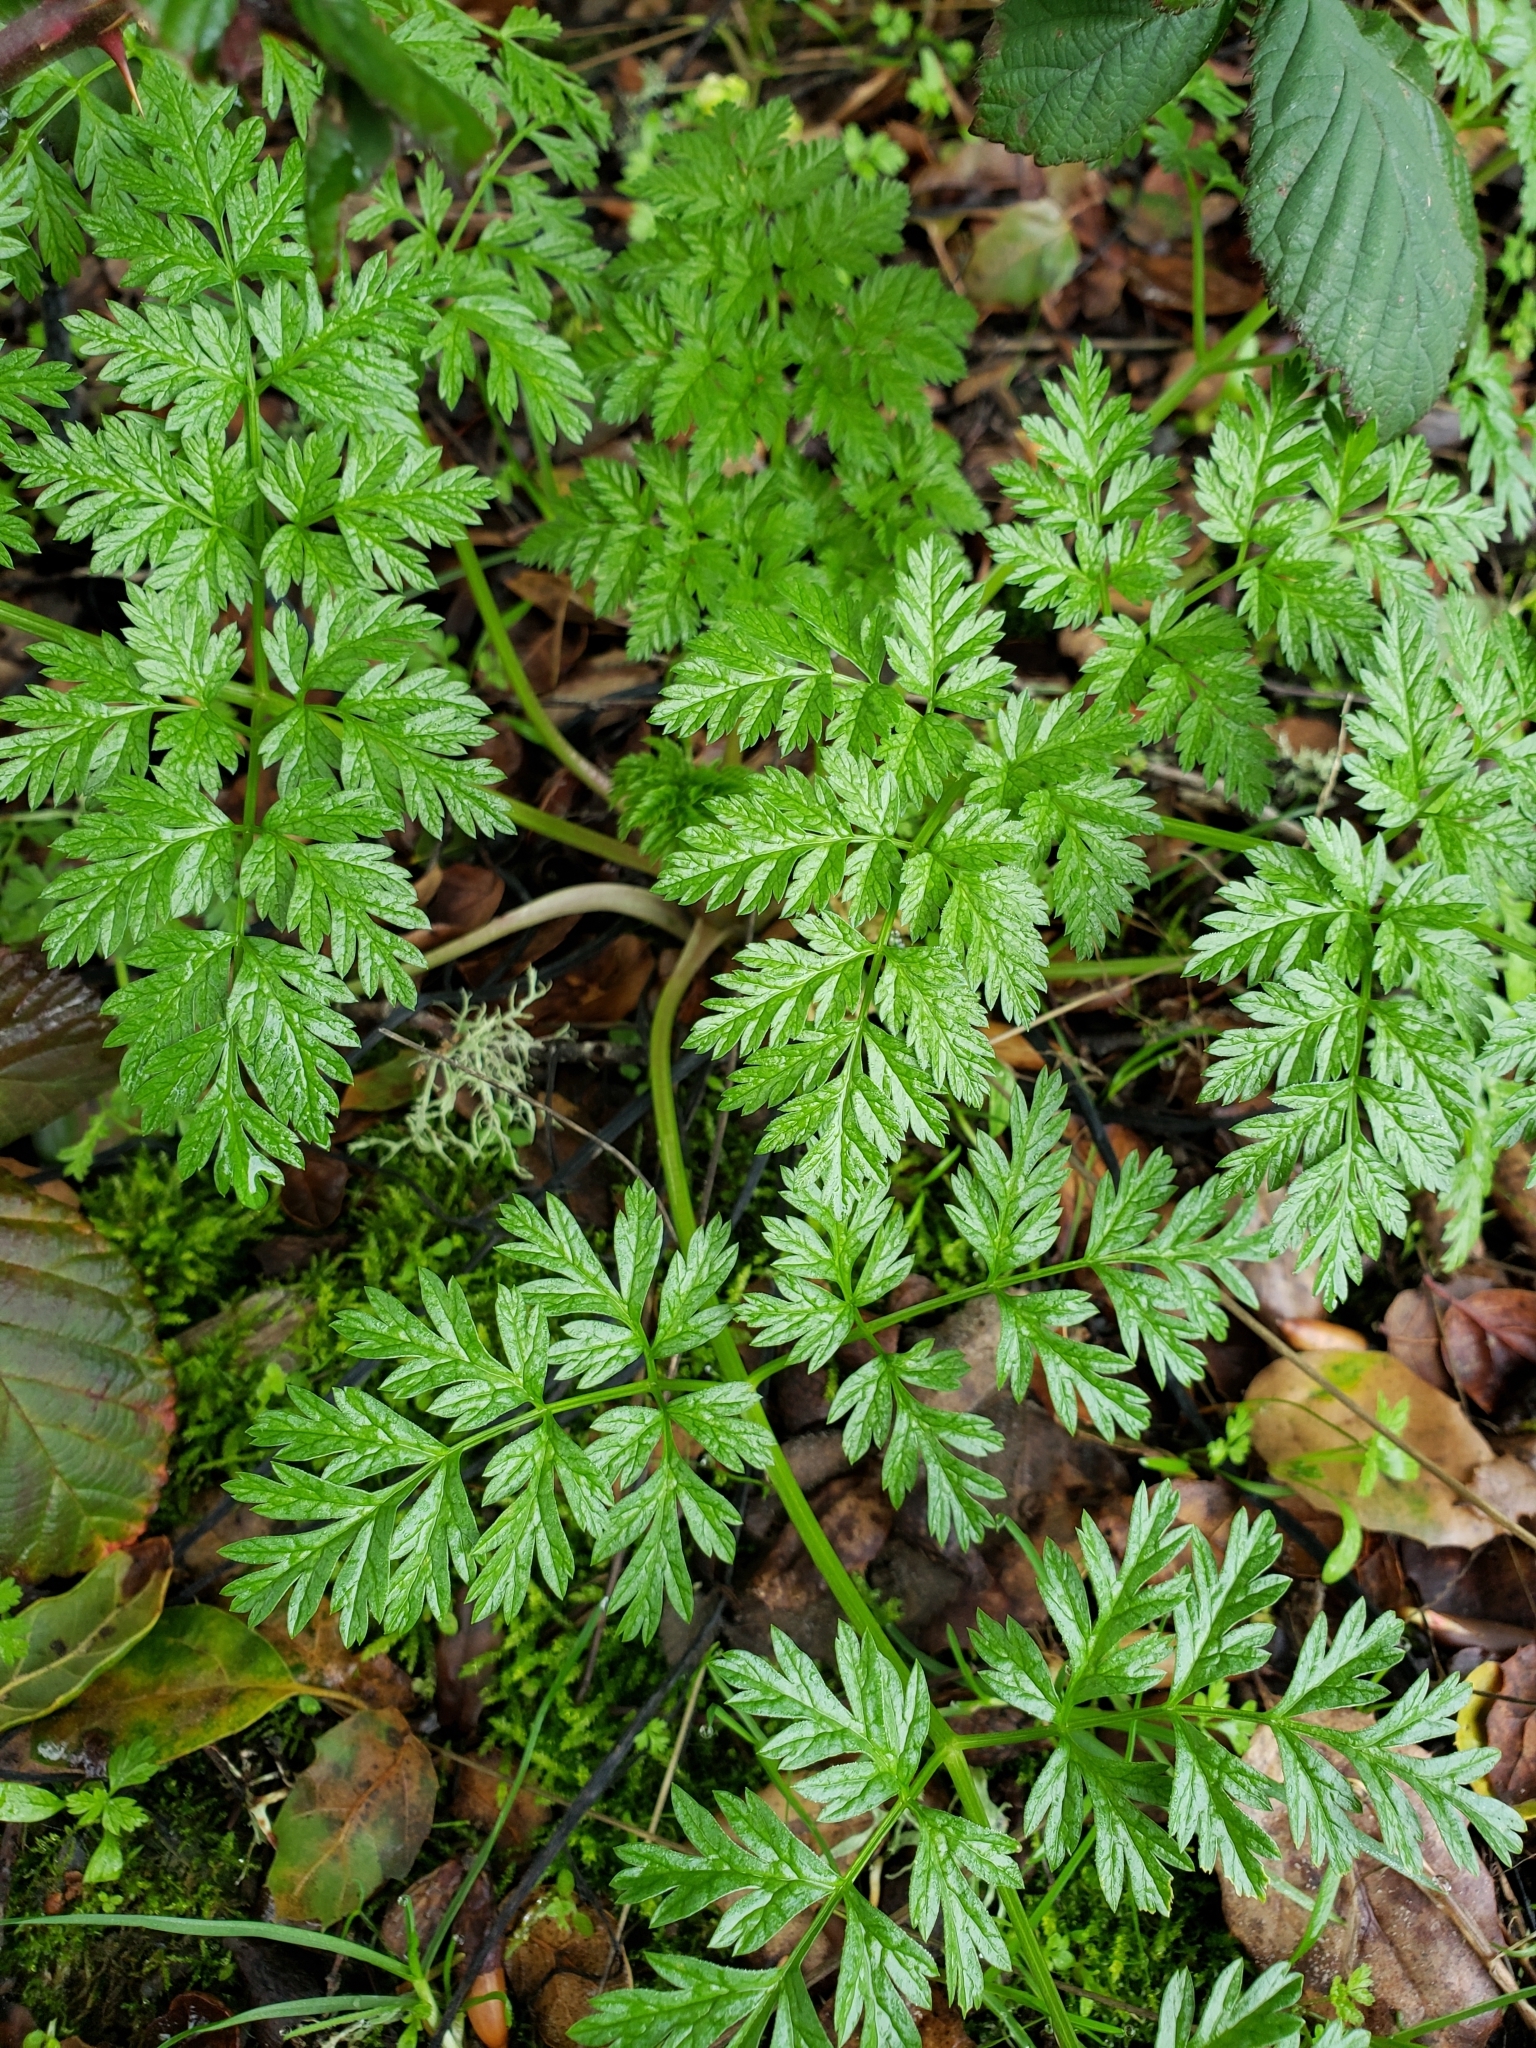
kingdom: Plantae
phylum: Tracheophyta
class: Magnoliopsida
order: Apiales
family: Apiaceae
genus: Conium
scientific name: Conium maculatum
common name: Hemlock
